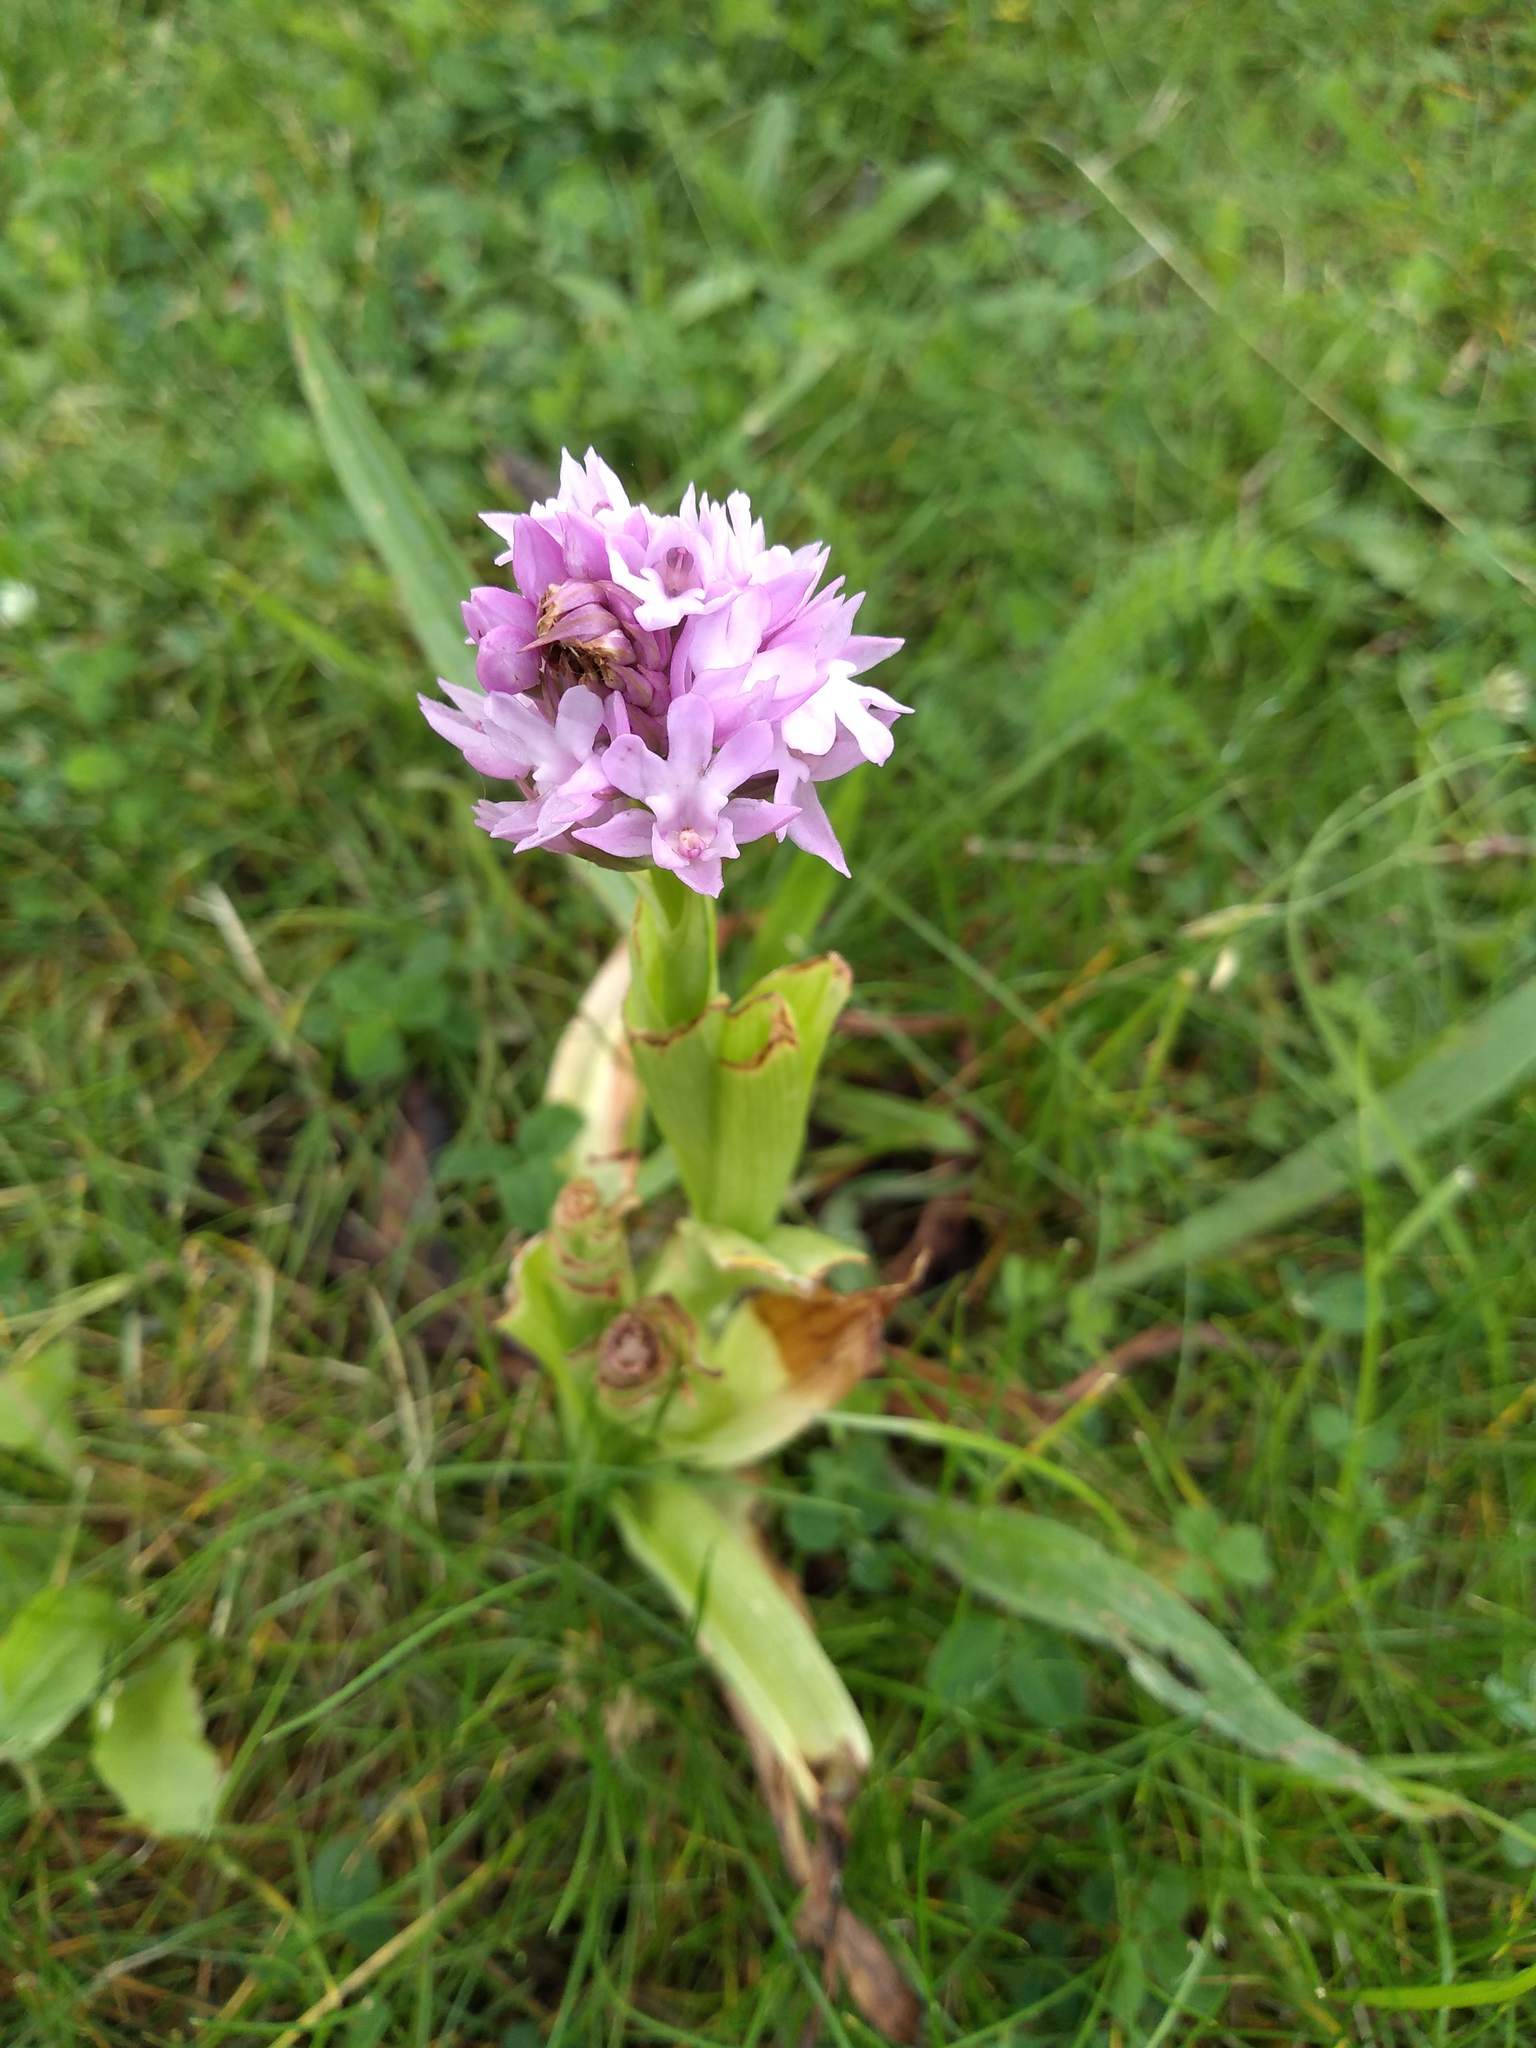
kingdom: Plantae
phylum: Tracheophyta
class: Liliopsida
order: Asparagales
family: Orchidaceae
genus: Anacamptis
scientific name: Anacamptis pyramidalis
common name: Pyramidal orchid
